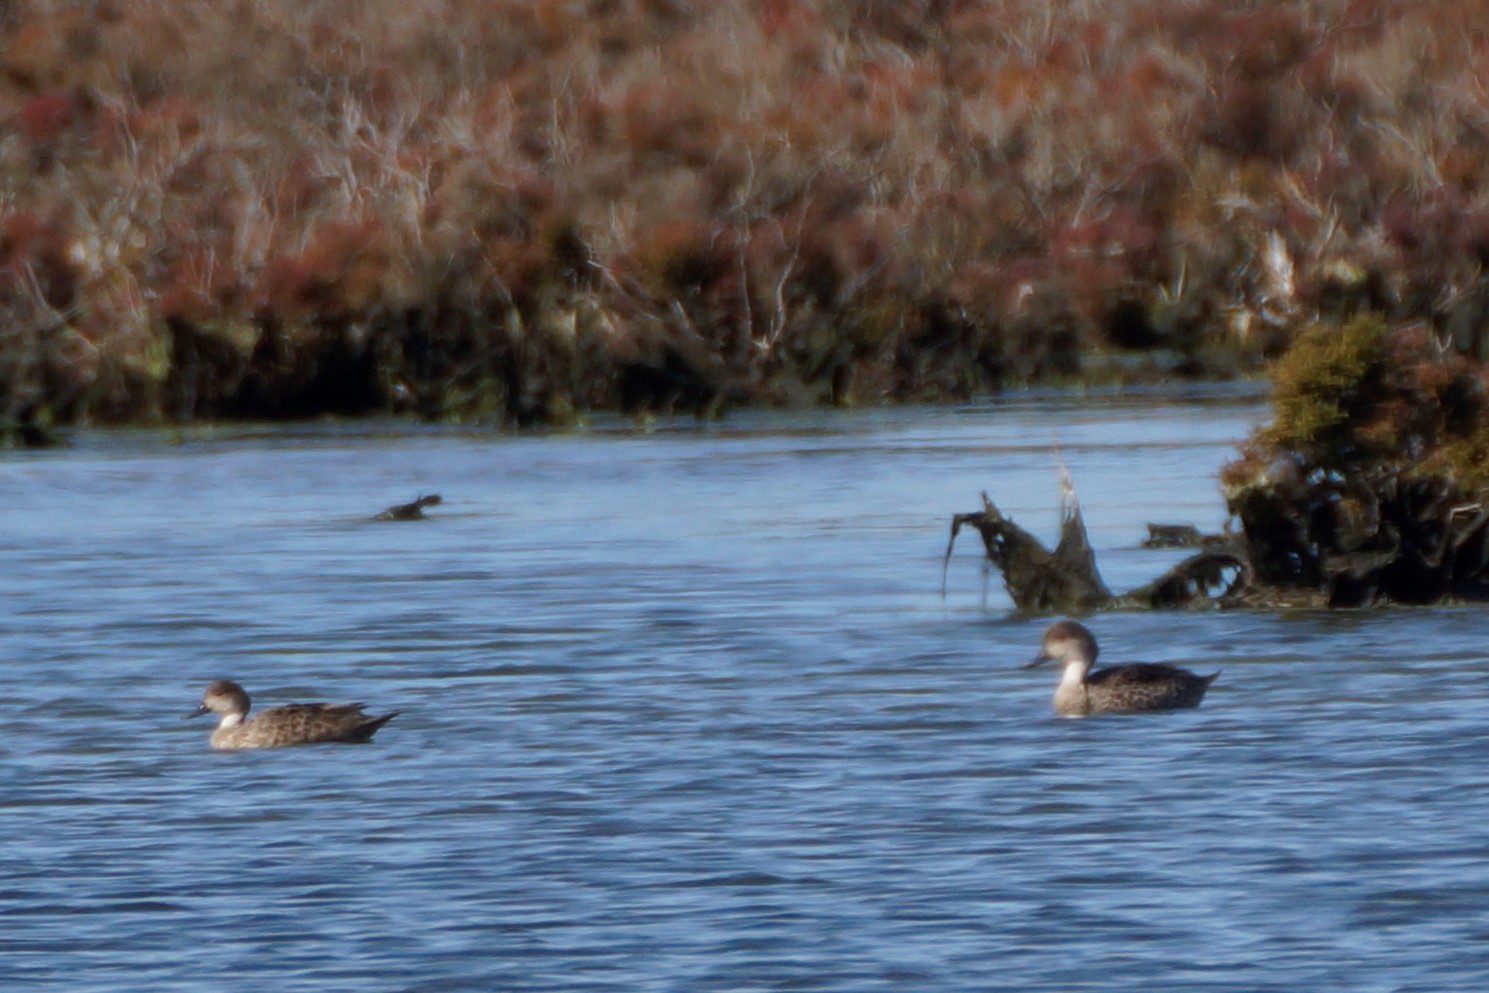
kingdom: Animalia
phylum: Chordata
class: Aves
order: Anseriformes
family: Anatidae
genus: Anas
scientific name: Anas gracilis
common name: Grey teal
